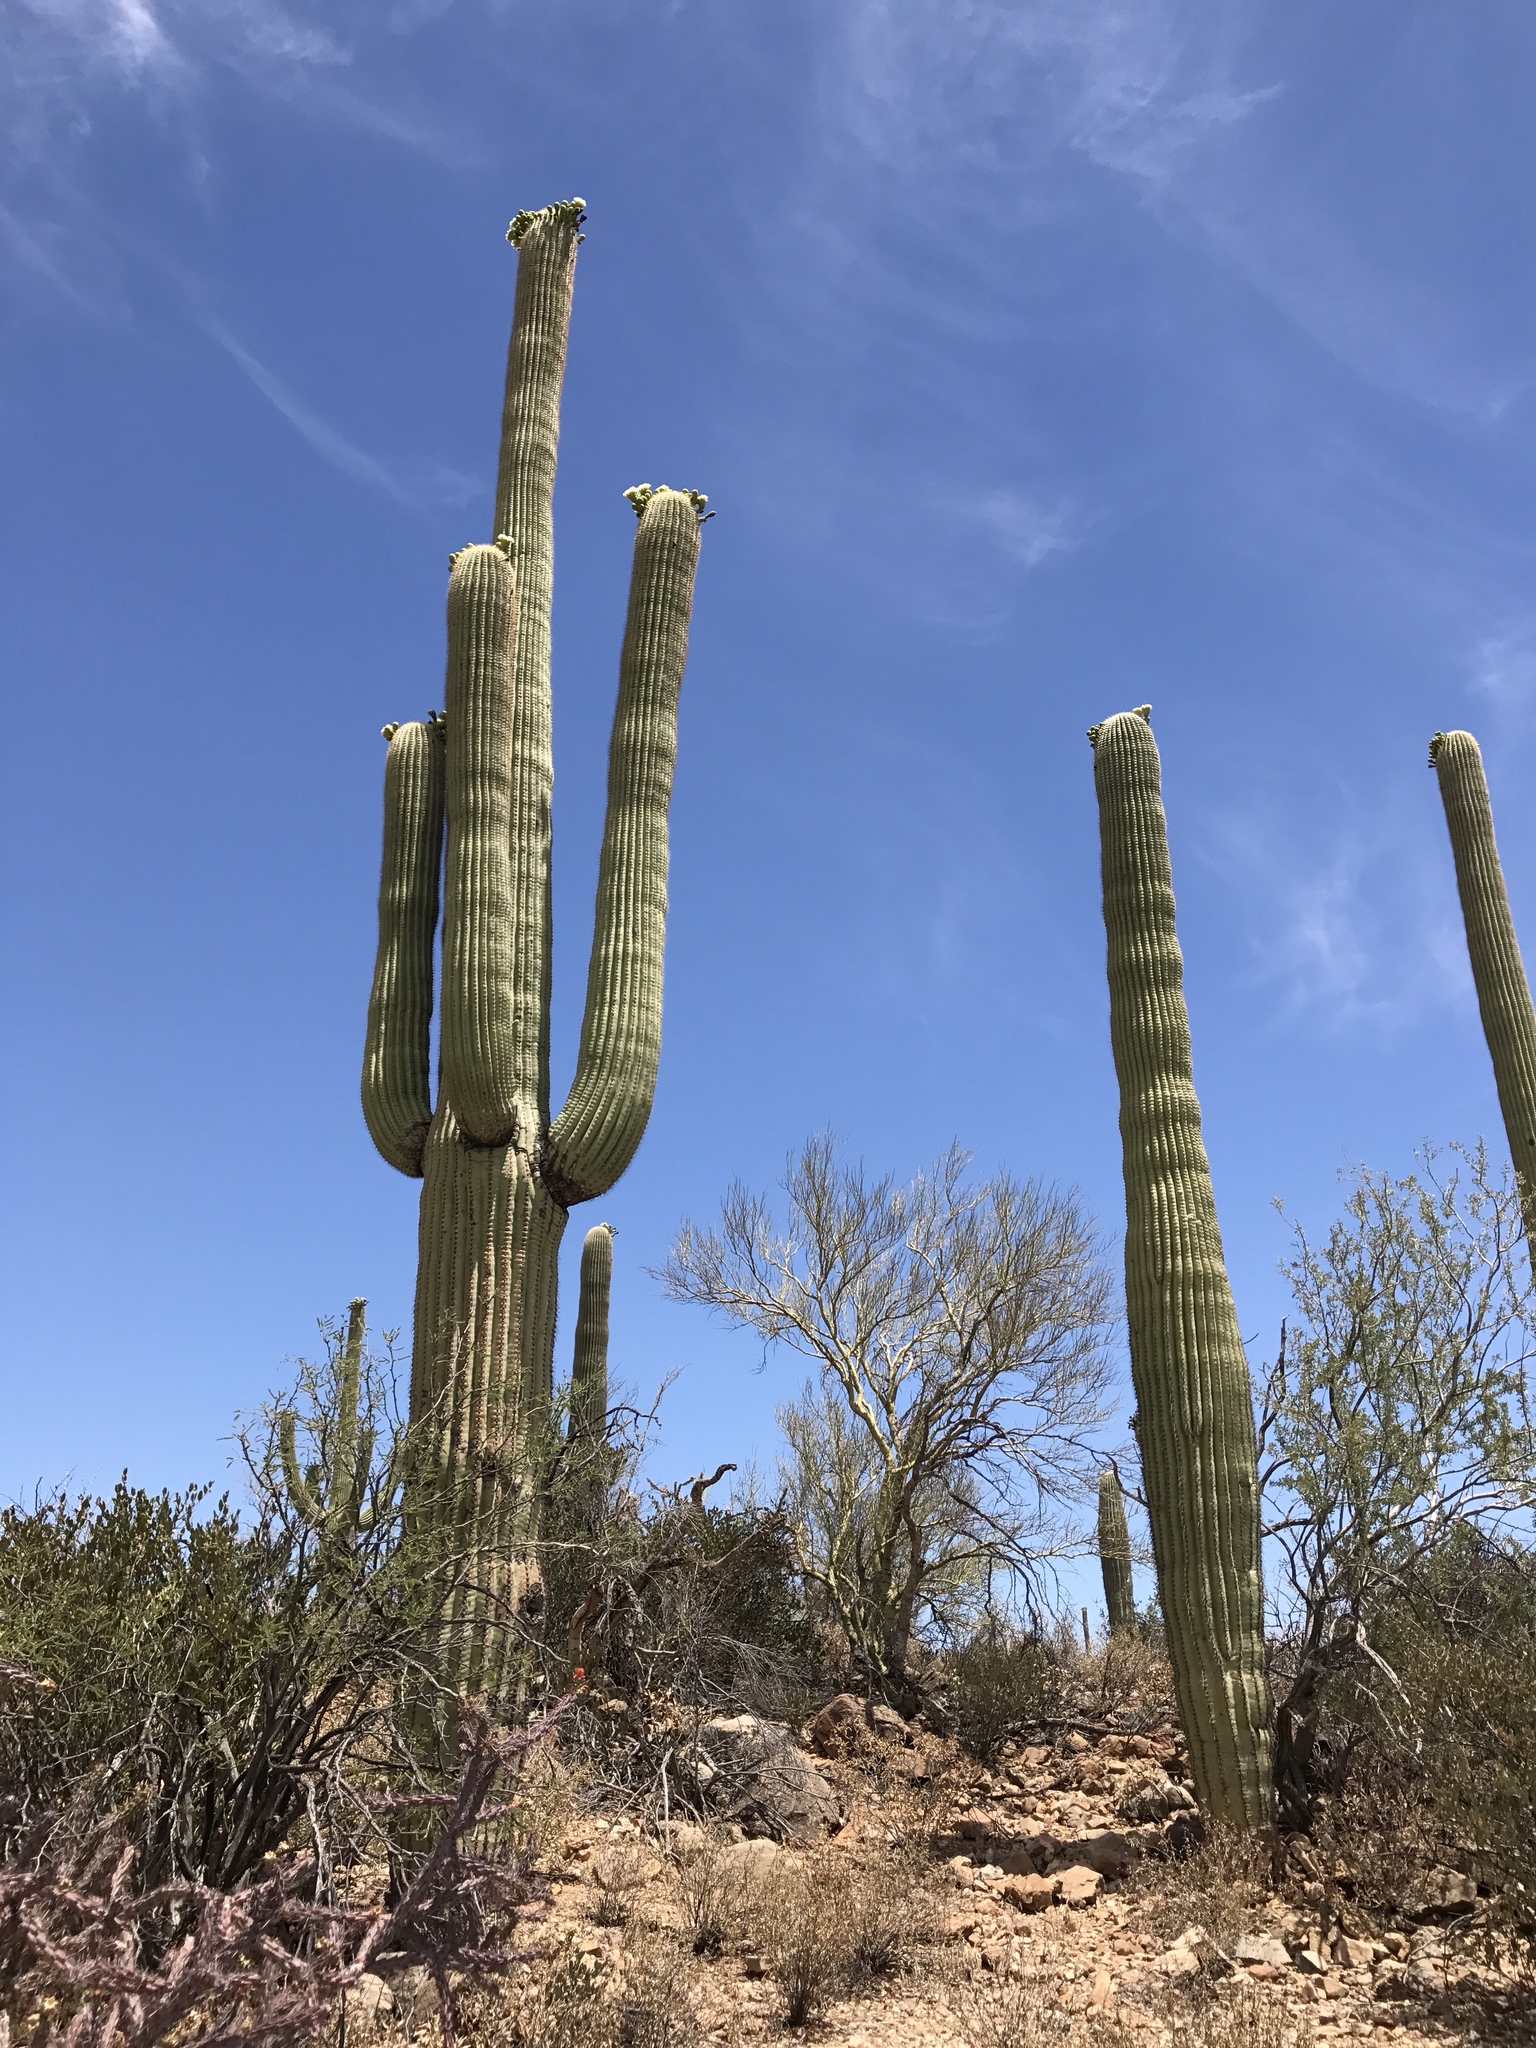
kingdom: Plantae
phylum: Tracheophyta
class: Magnoliopsida
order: Caryophyllales
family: Cactaceae
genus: Carnegiea
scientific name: Carnegiea gigantea
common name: Saguaro
